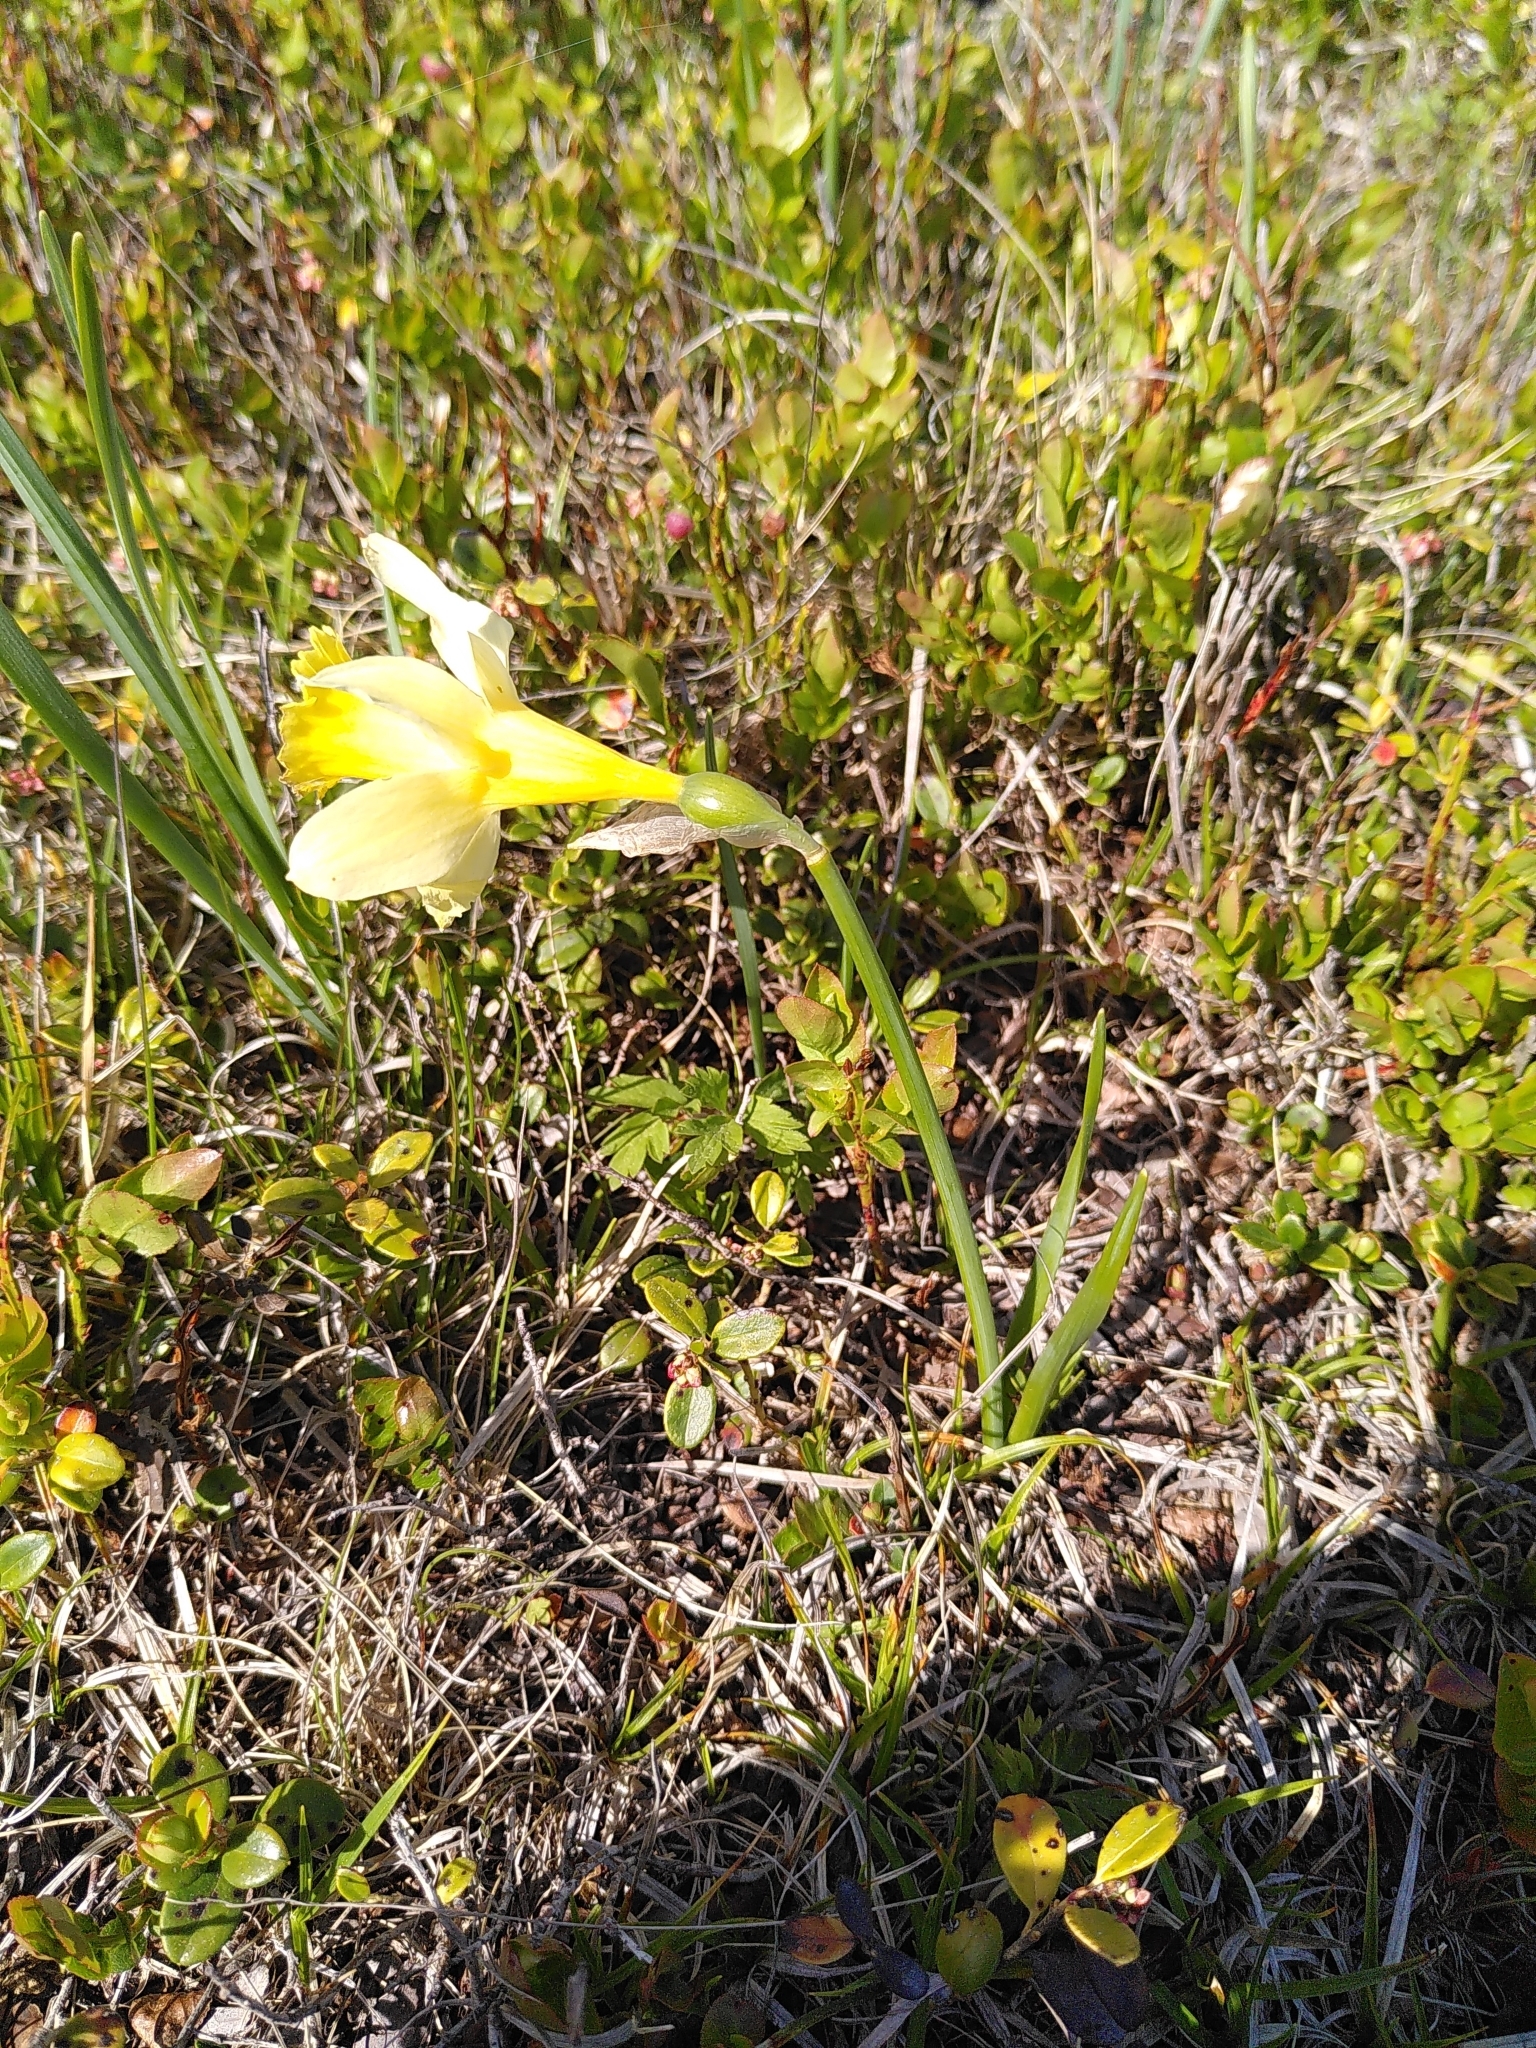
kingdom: Plantae
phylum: Tracheophyta
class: Liliopsida
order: Asparagales
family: Amaryllidaceae
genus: Narcissus
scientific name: Narcissus pseudonarcissus
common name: Daffodil
